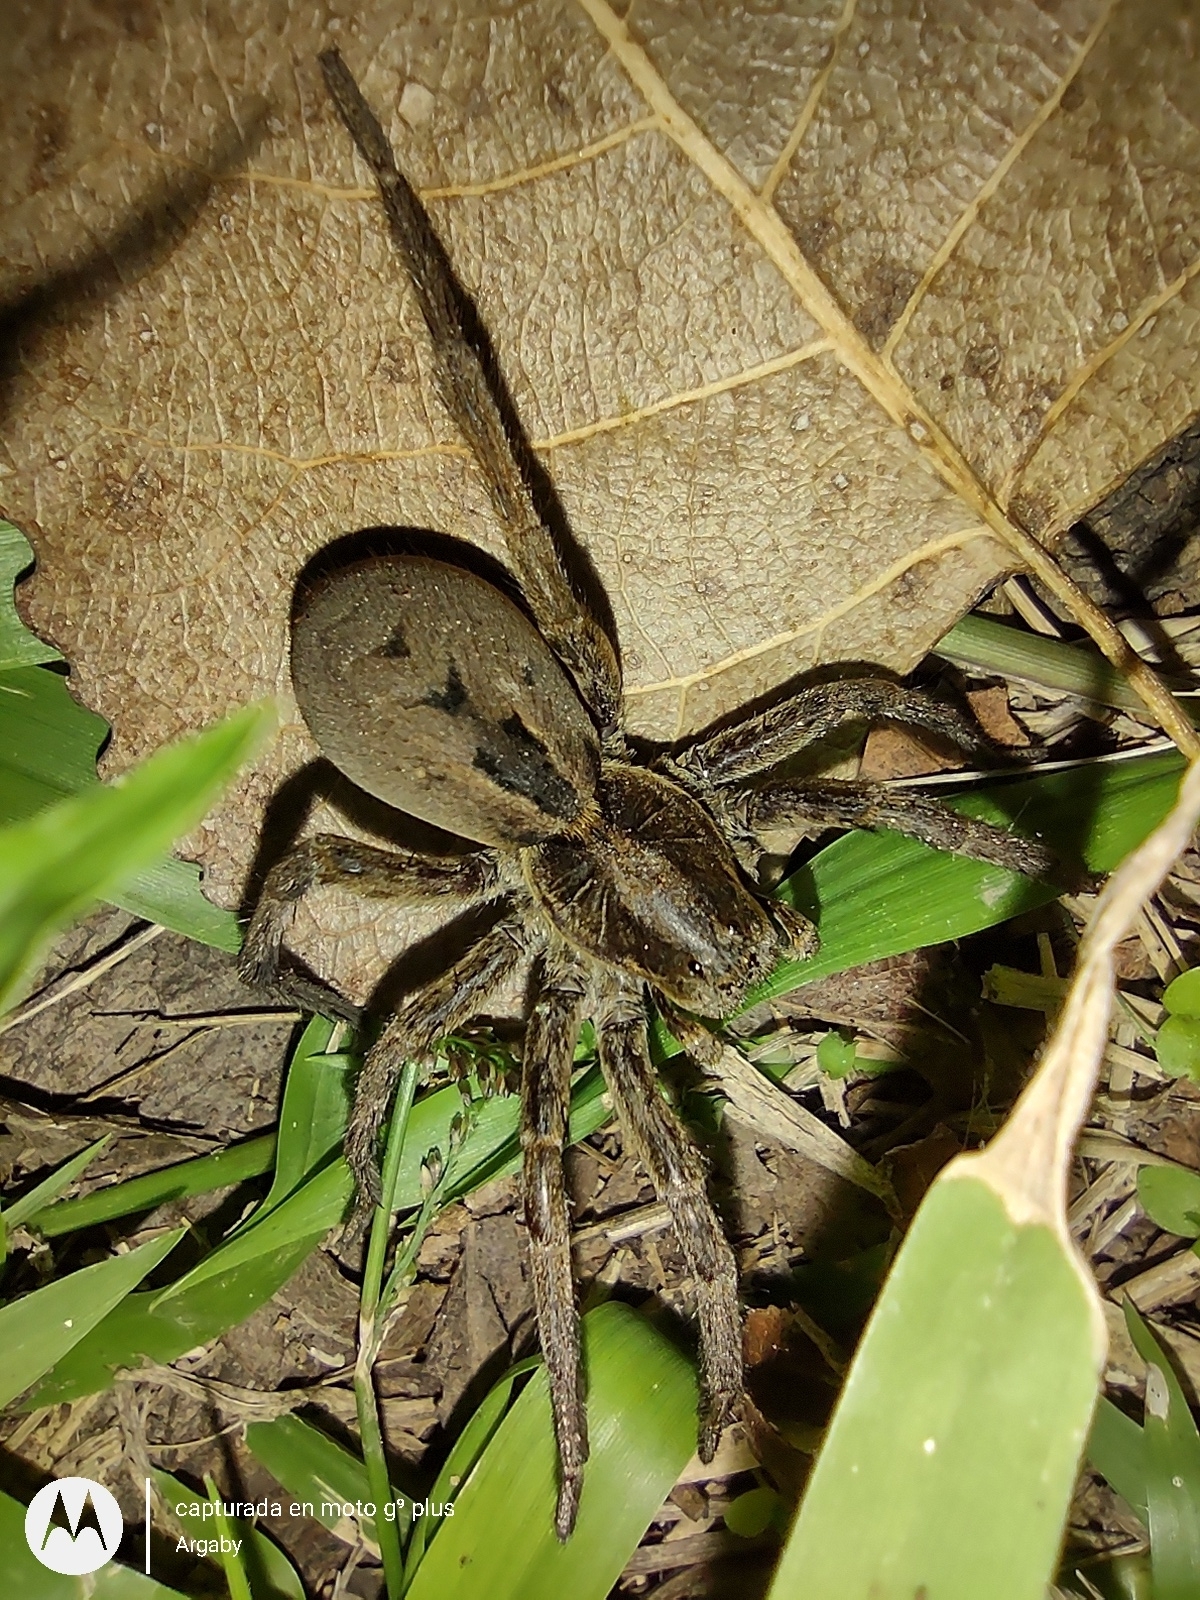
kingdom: Animalia
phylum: Arthropoda
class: Arachnida
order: Araneae
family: Lycosidae
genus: Lycosa
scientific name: Lycosa erythrognatha
